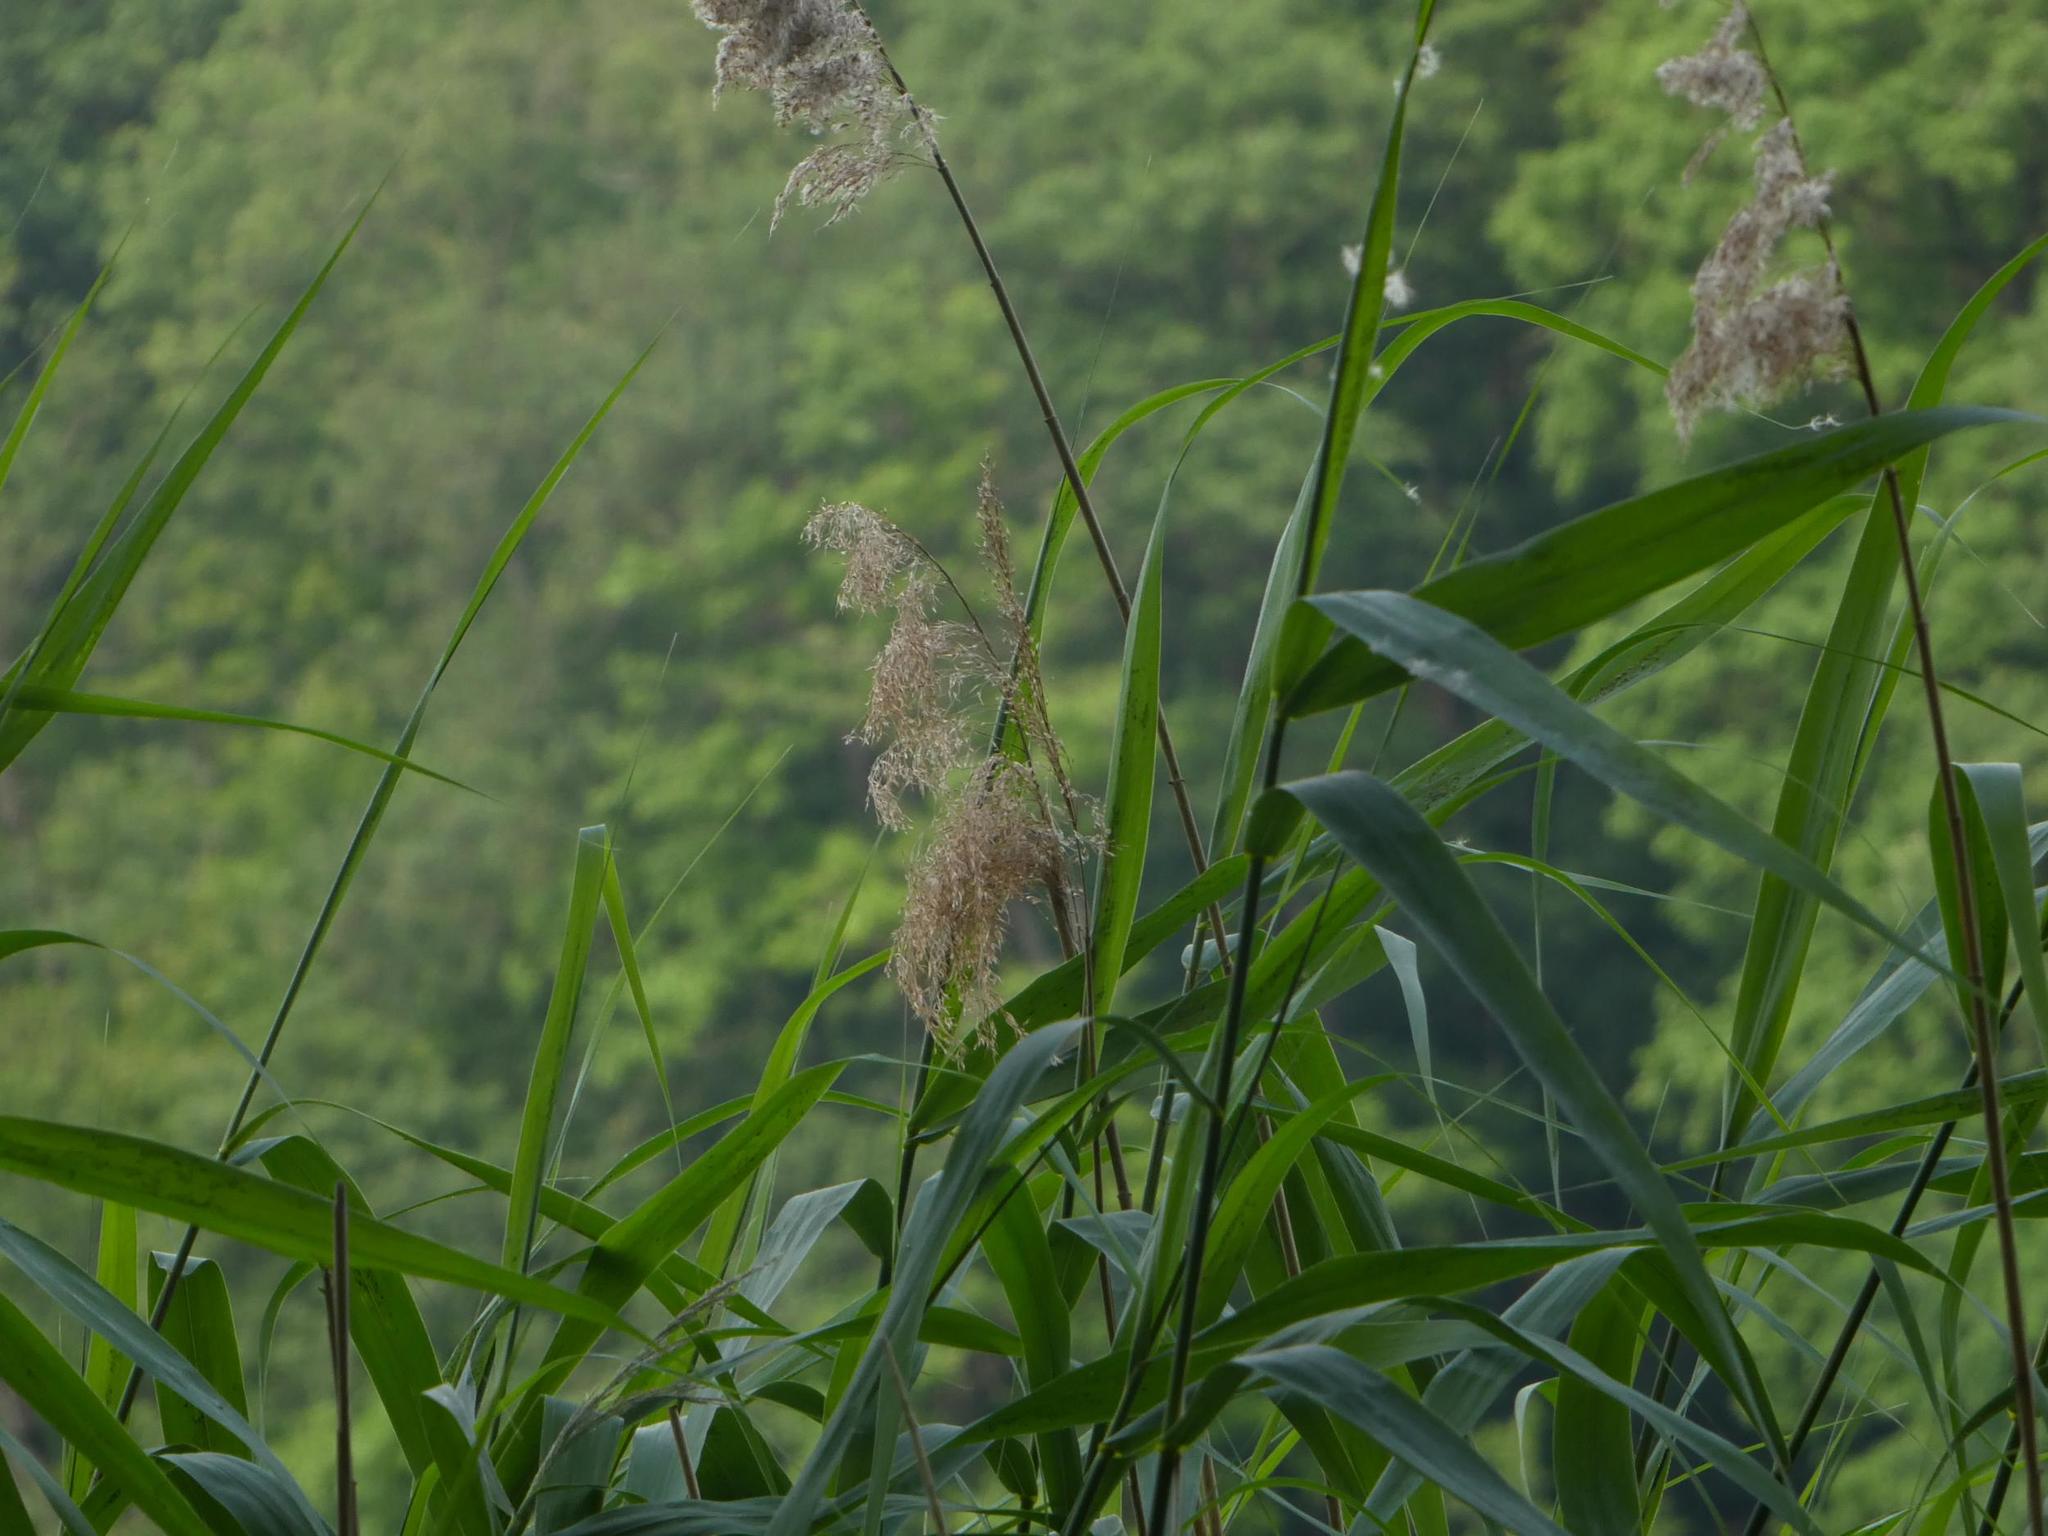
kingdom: Plantae
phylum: Tracheophyta
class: Liliopsida
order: Poales
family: Poaceae
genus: Phragmites
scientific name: Phragmites australis
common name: Common reed
